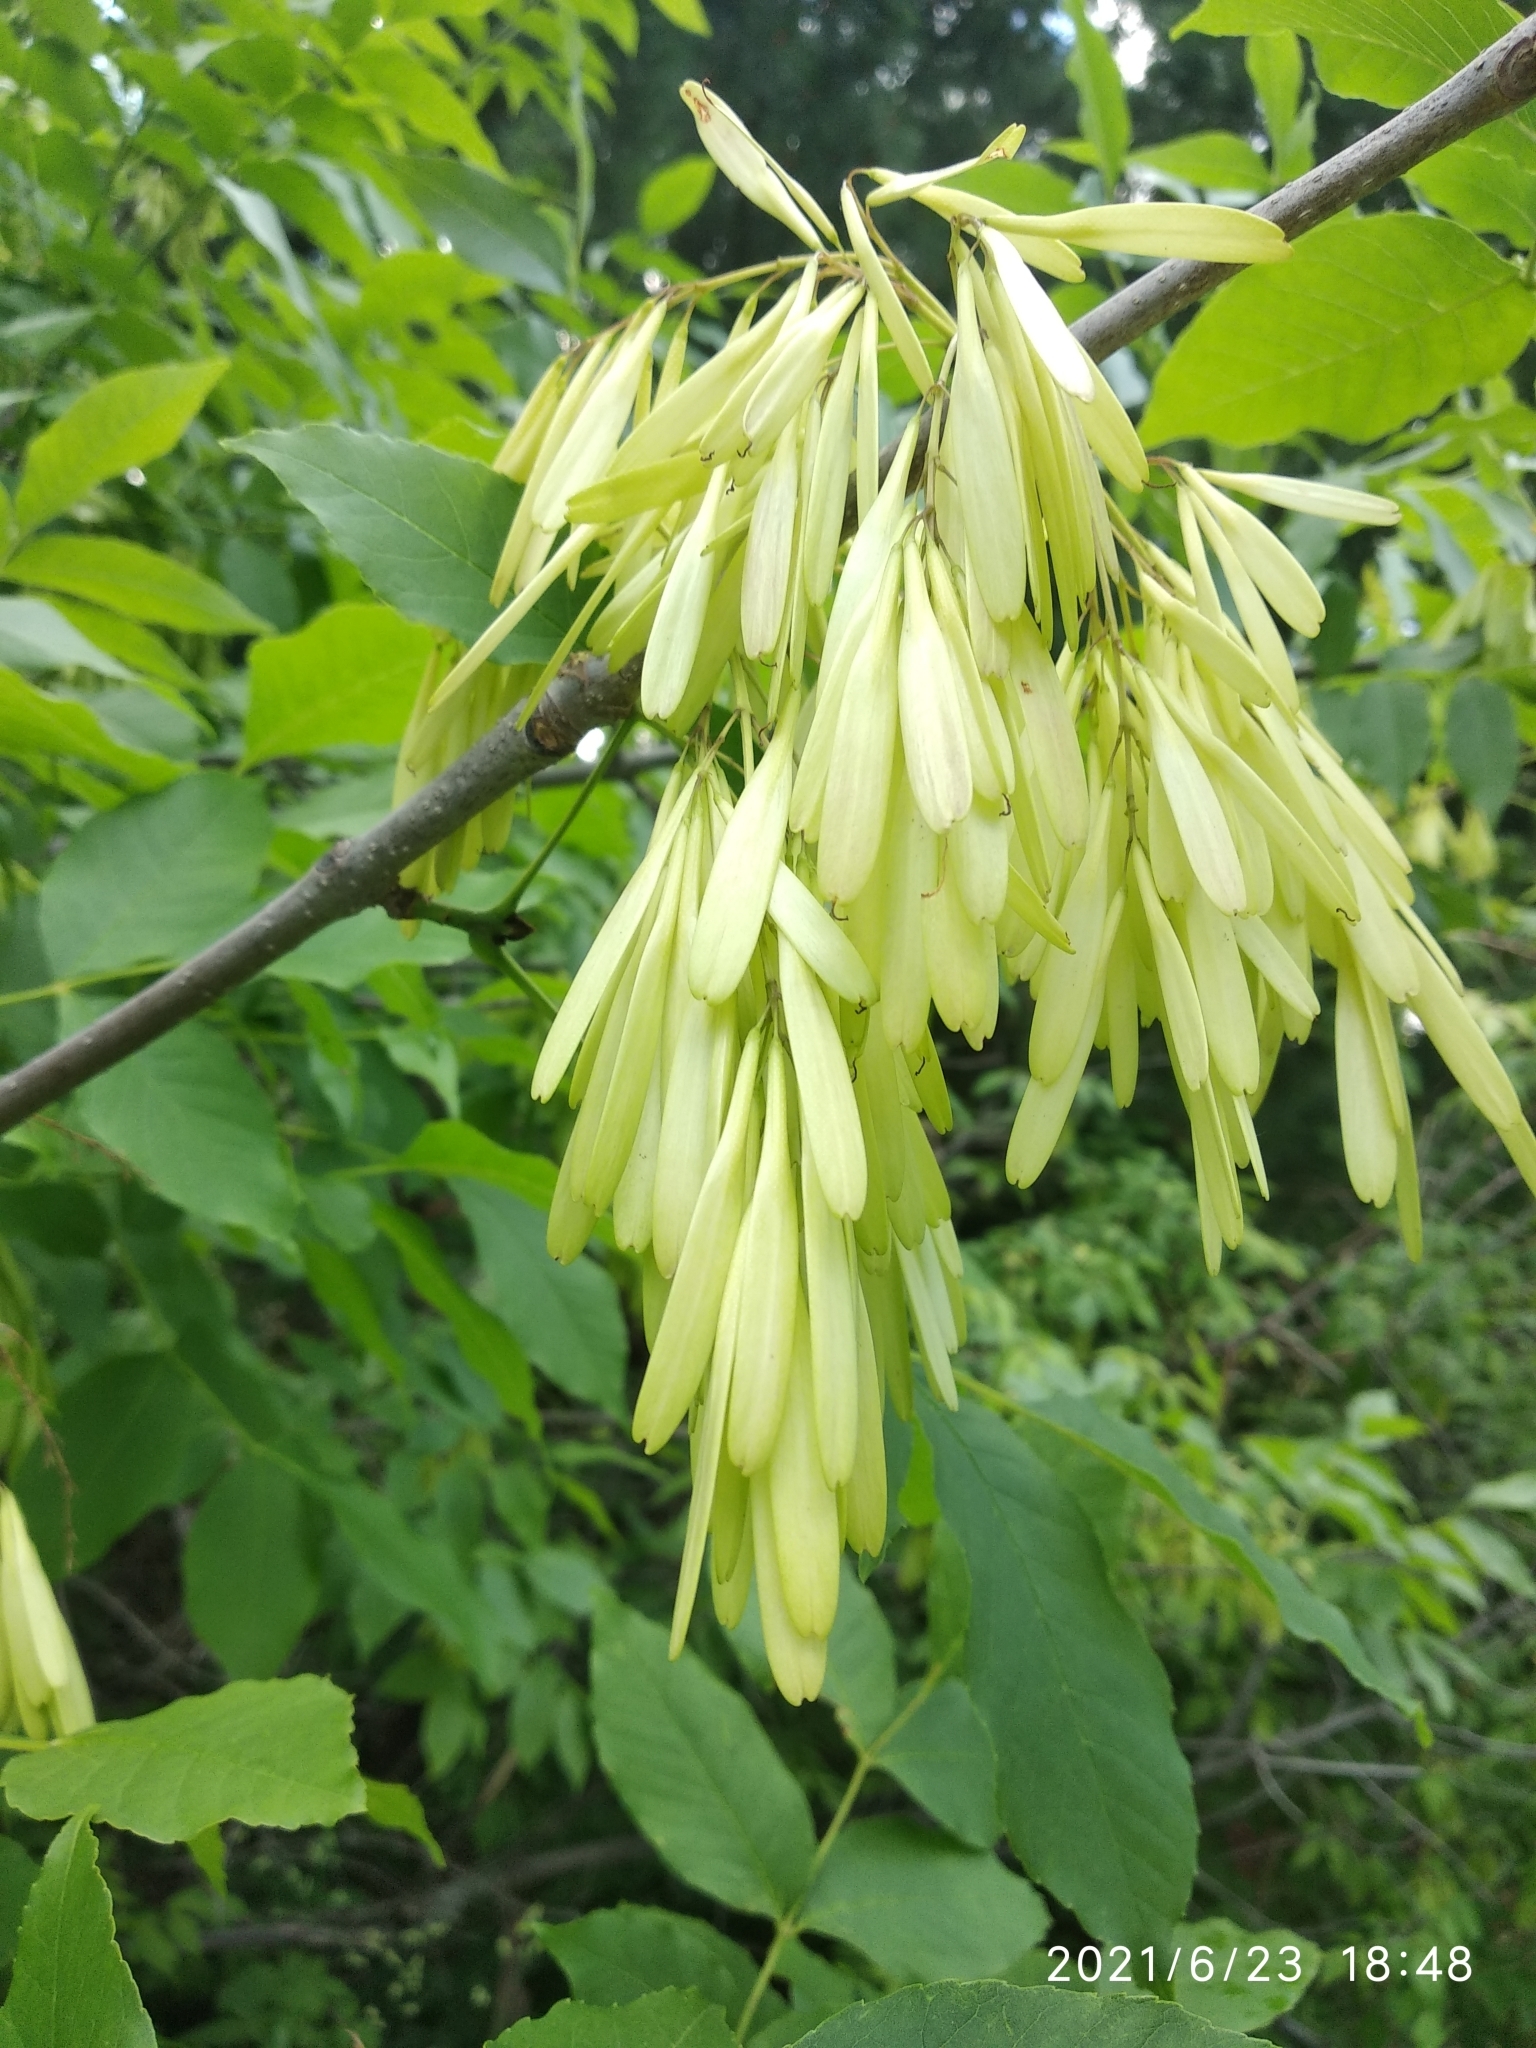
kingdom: Plantae
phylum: Tracheophyta
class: Magnoliopsida
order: Lamiales
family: Oleaceae
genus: Fraxinus
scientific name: Fraxinus pennsylvanica
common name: Green ash
